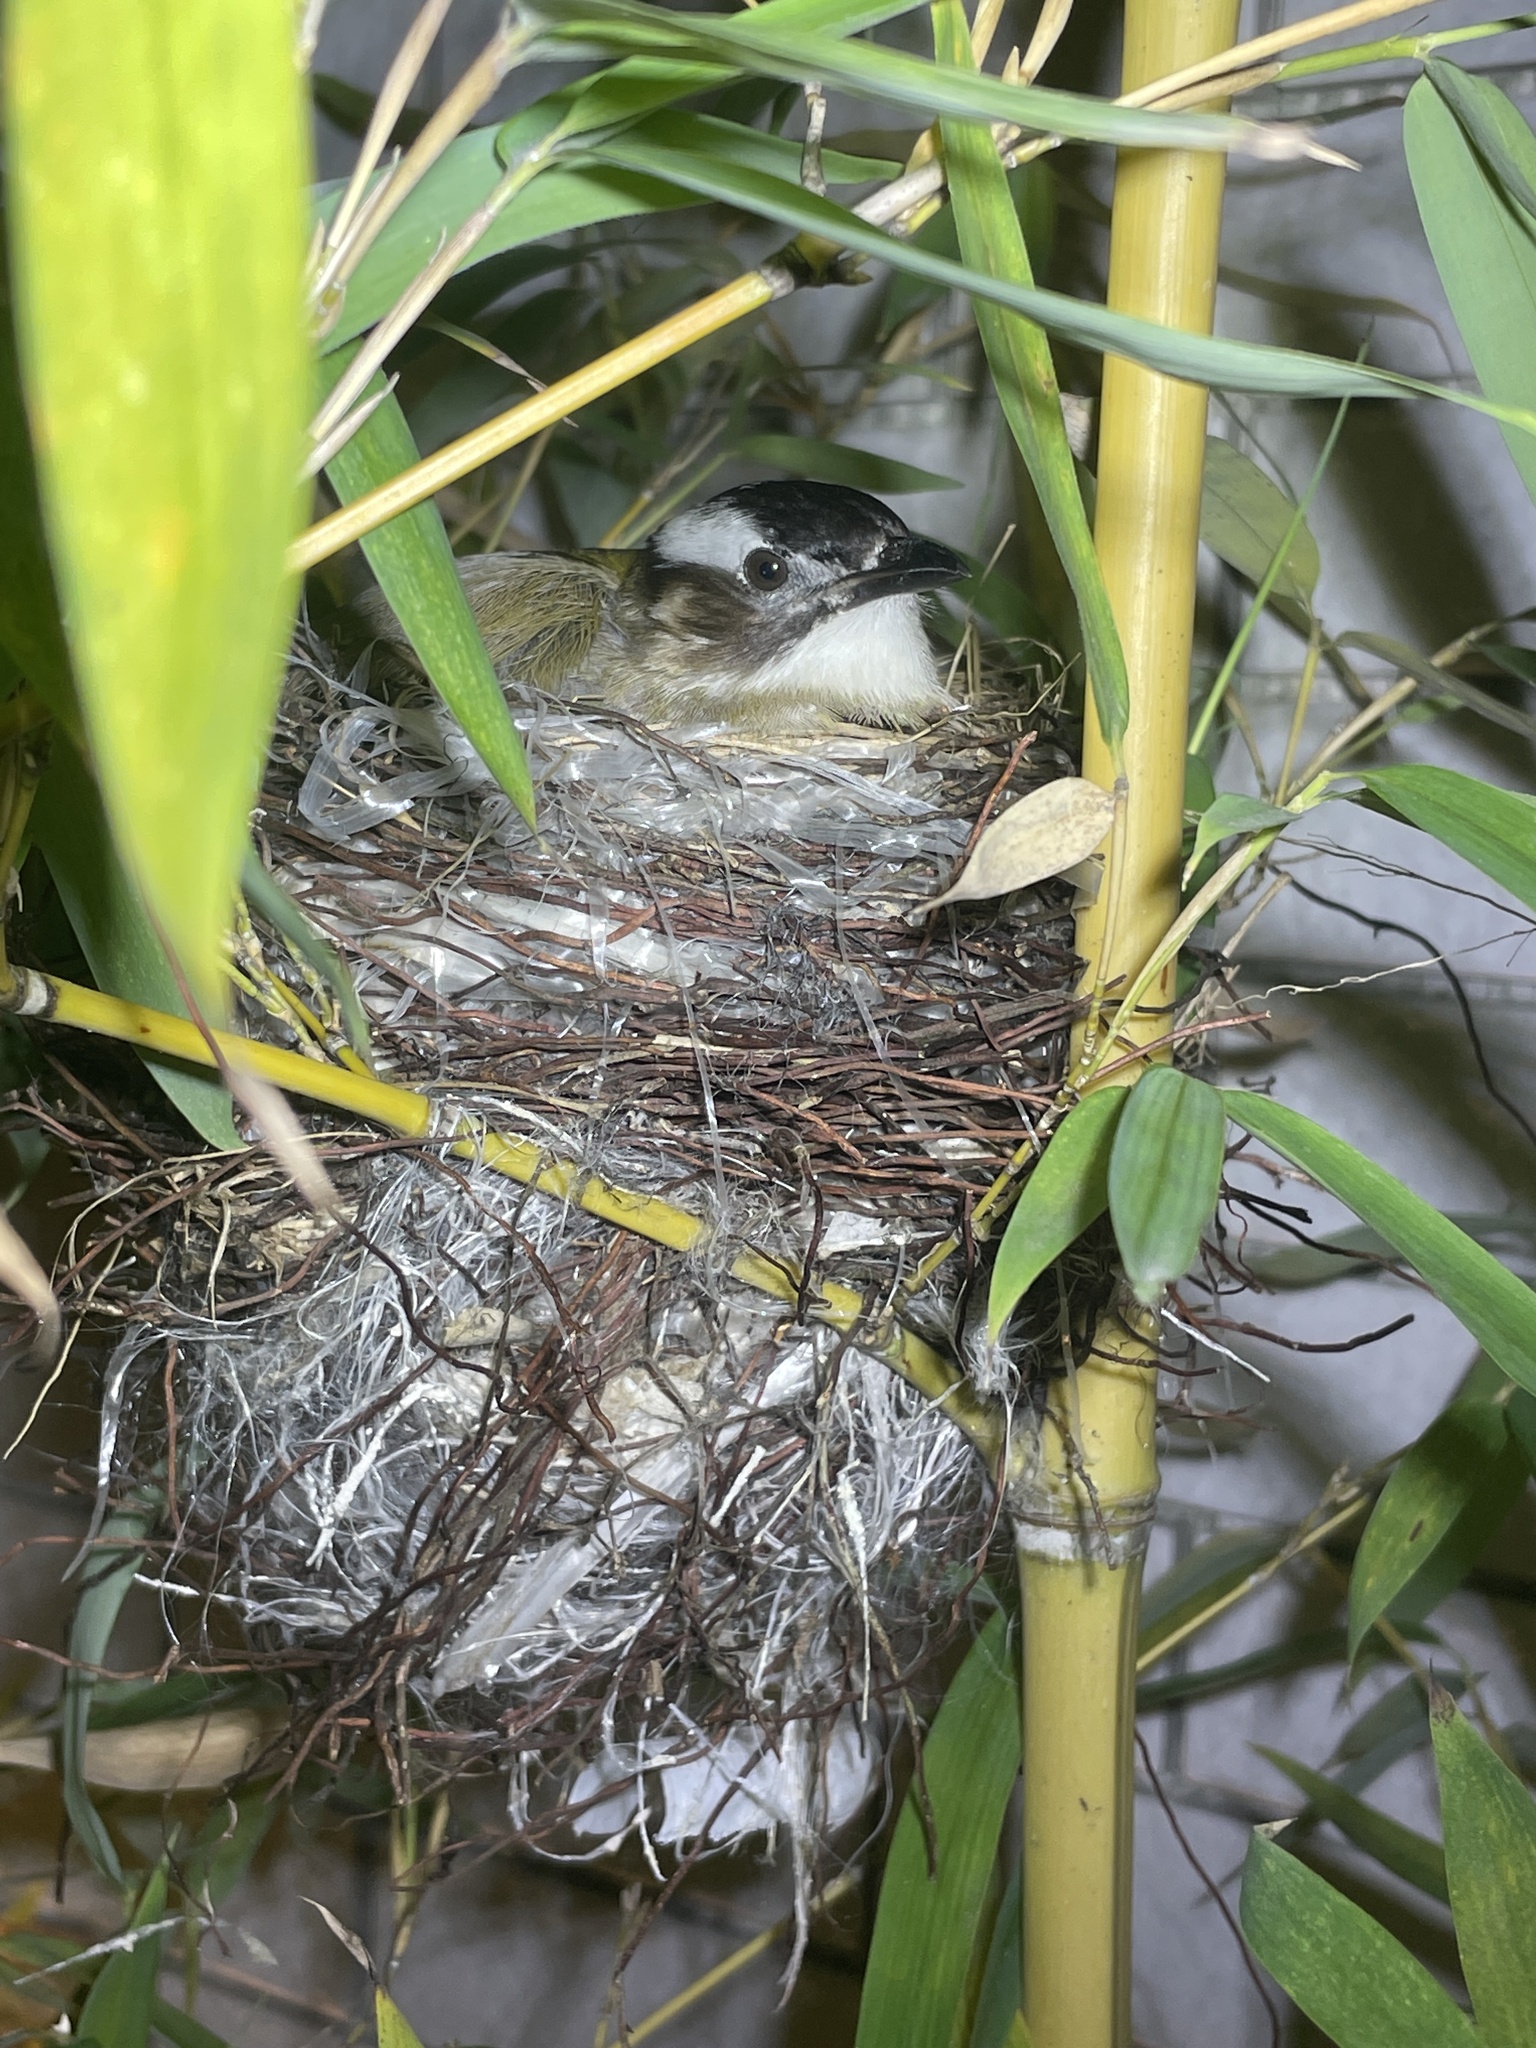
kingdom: Animalia
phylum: Chordata
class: Aves
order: Passeriformes
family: Pycnonotidae
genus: Pycnonotus
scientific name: Pycnonotus sinensis
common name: Light-vented bulbul
